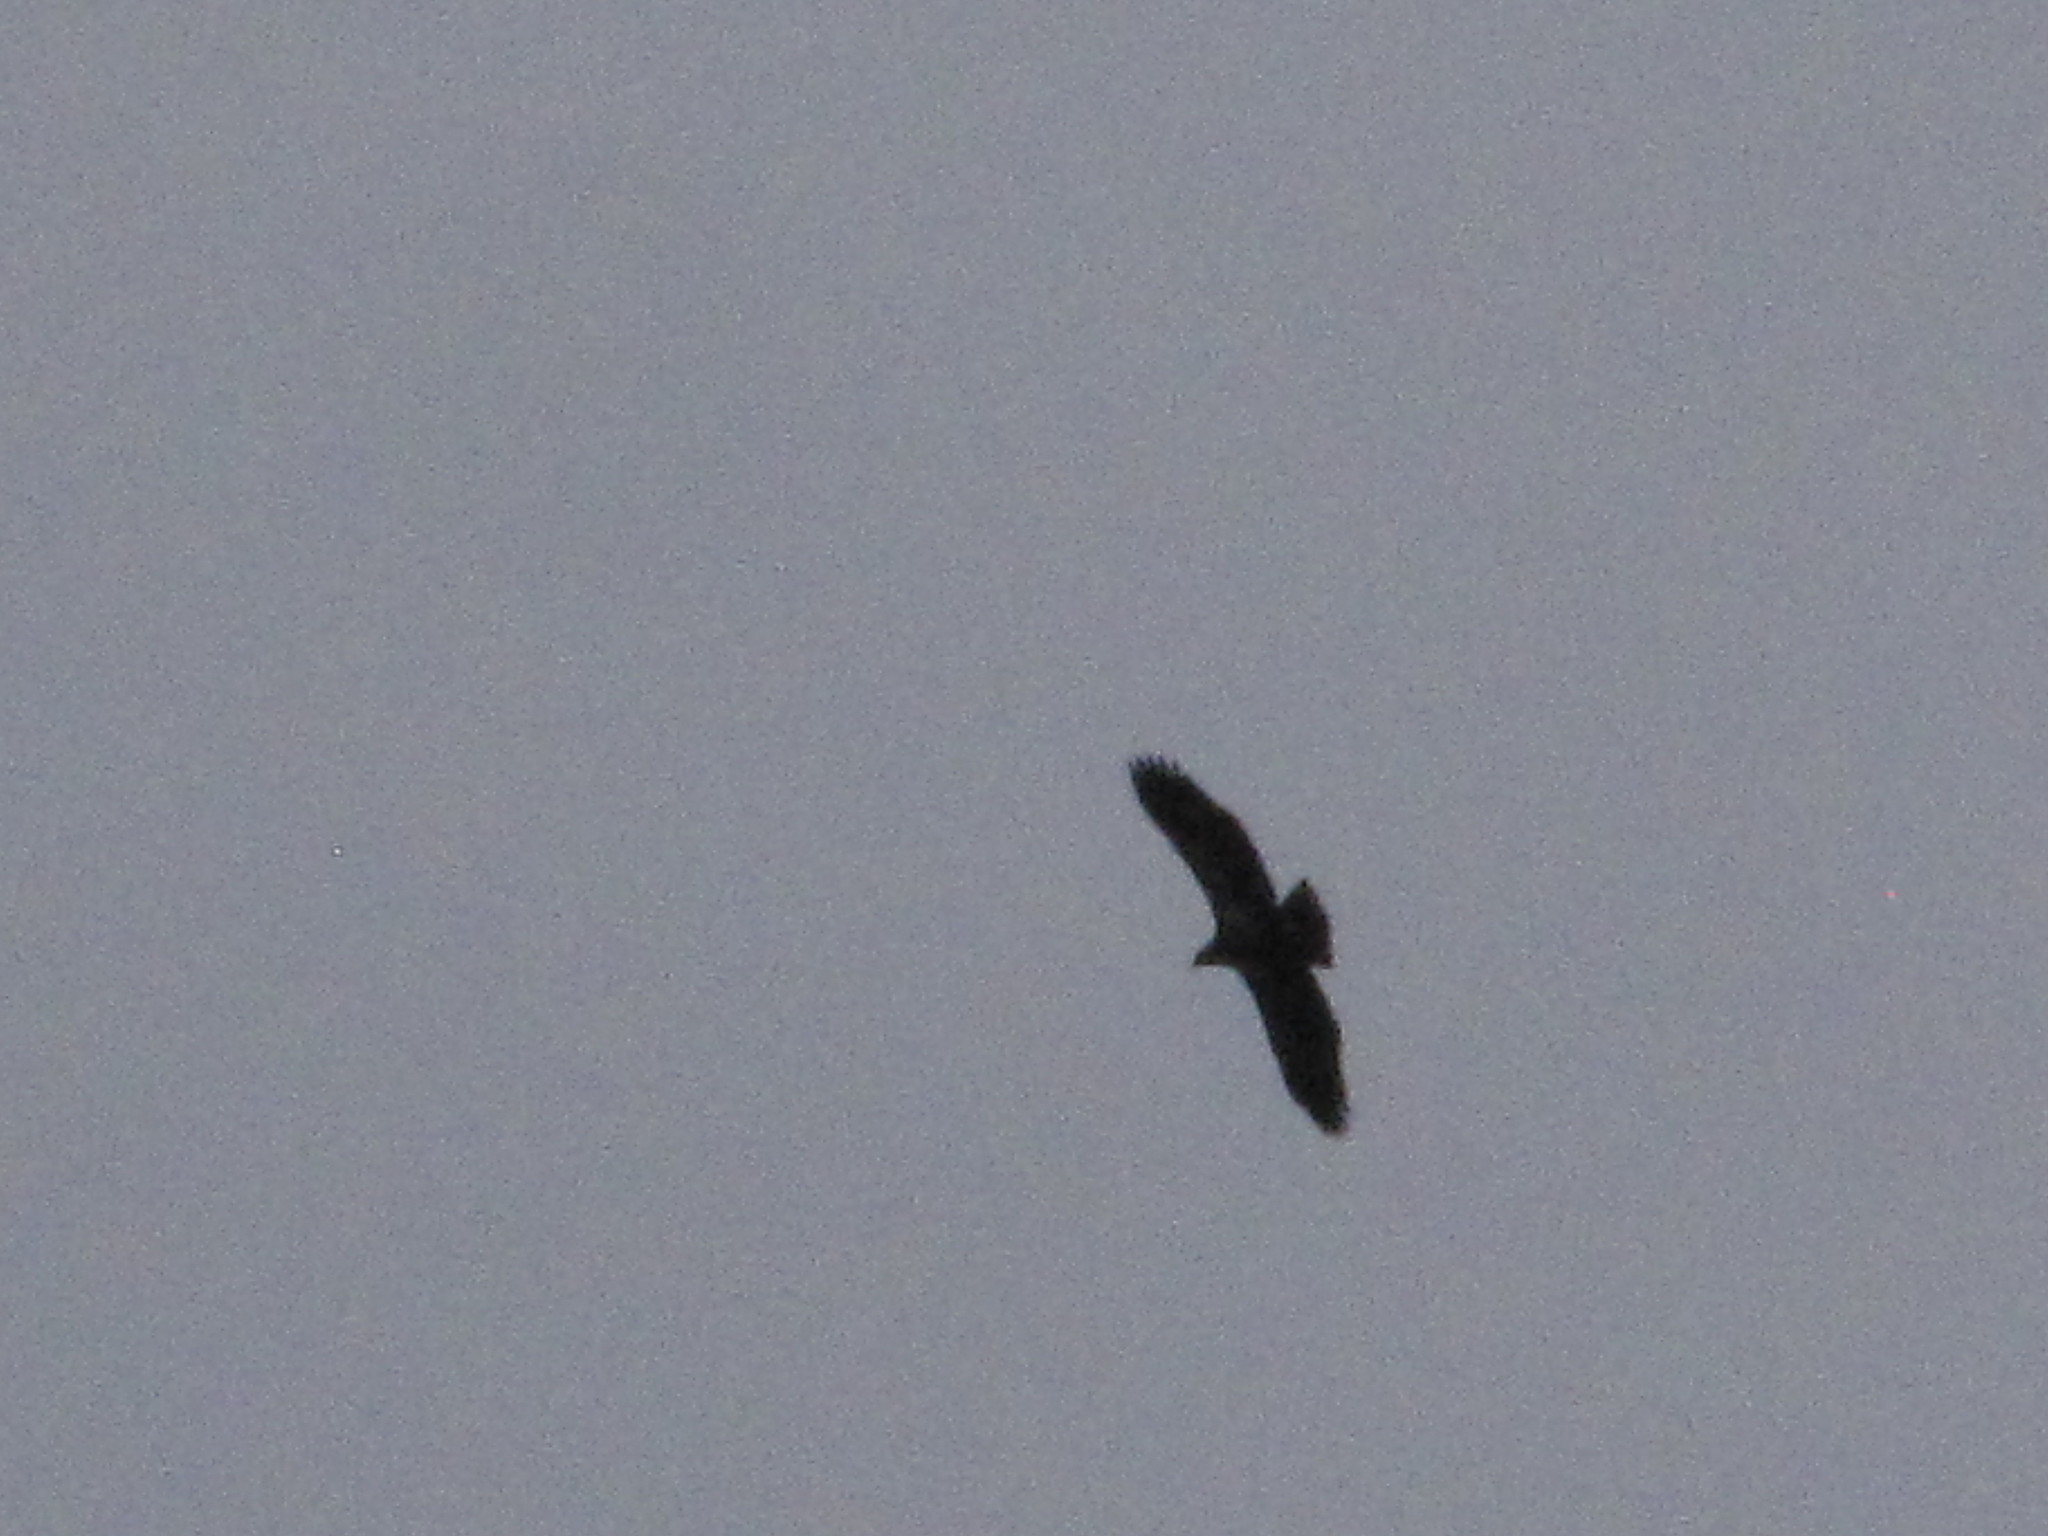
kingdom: Animalia
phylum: Chordata
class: Aves
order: Accipitriformes
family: Accipitridae
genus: Haliaeetus
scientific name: Haliaeetus leucocephalus
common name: Bald eagle
